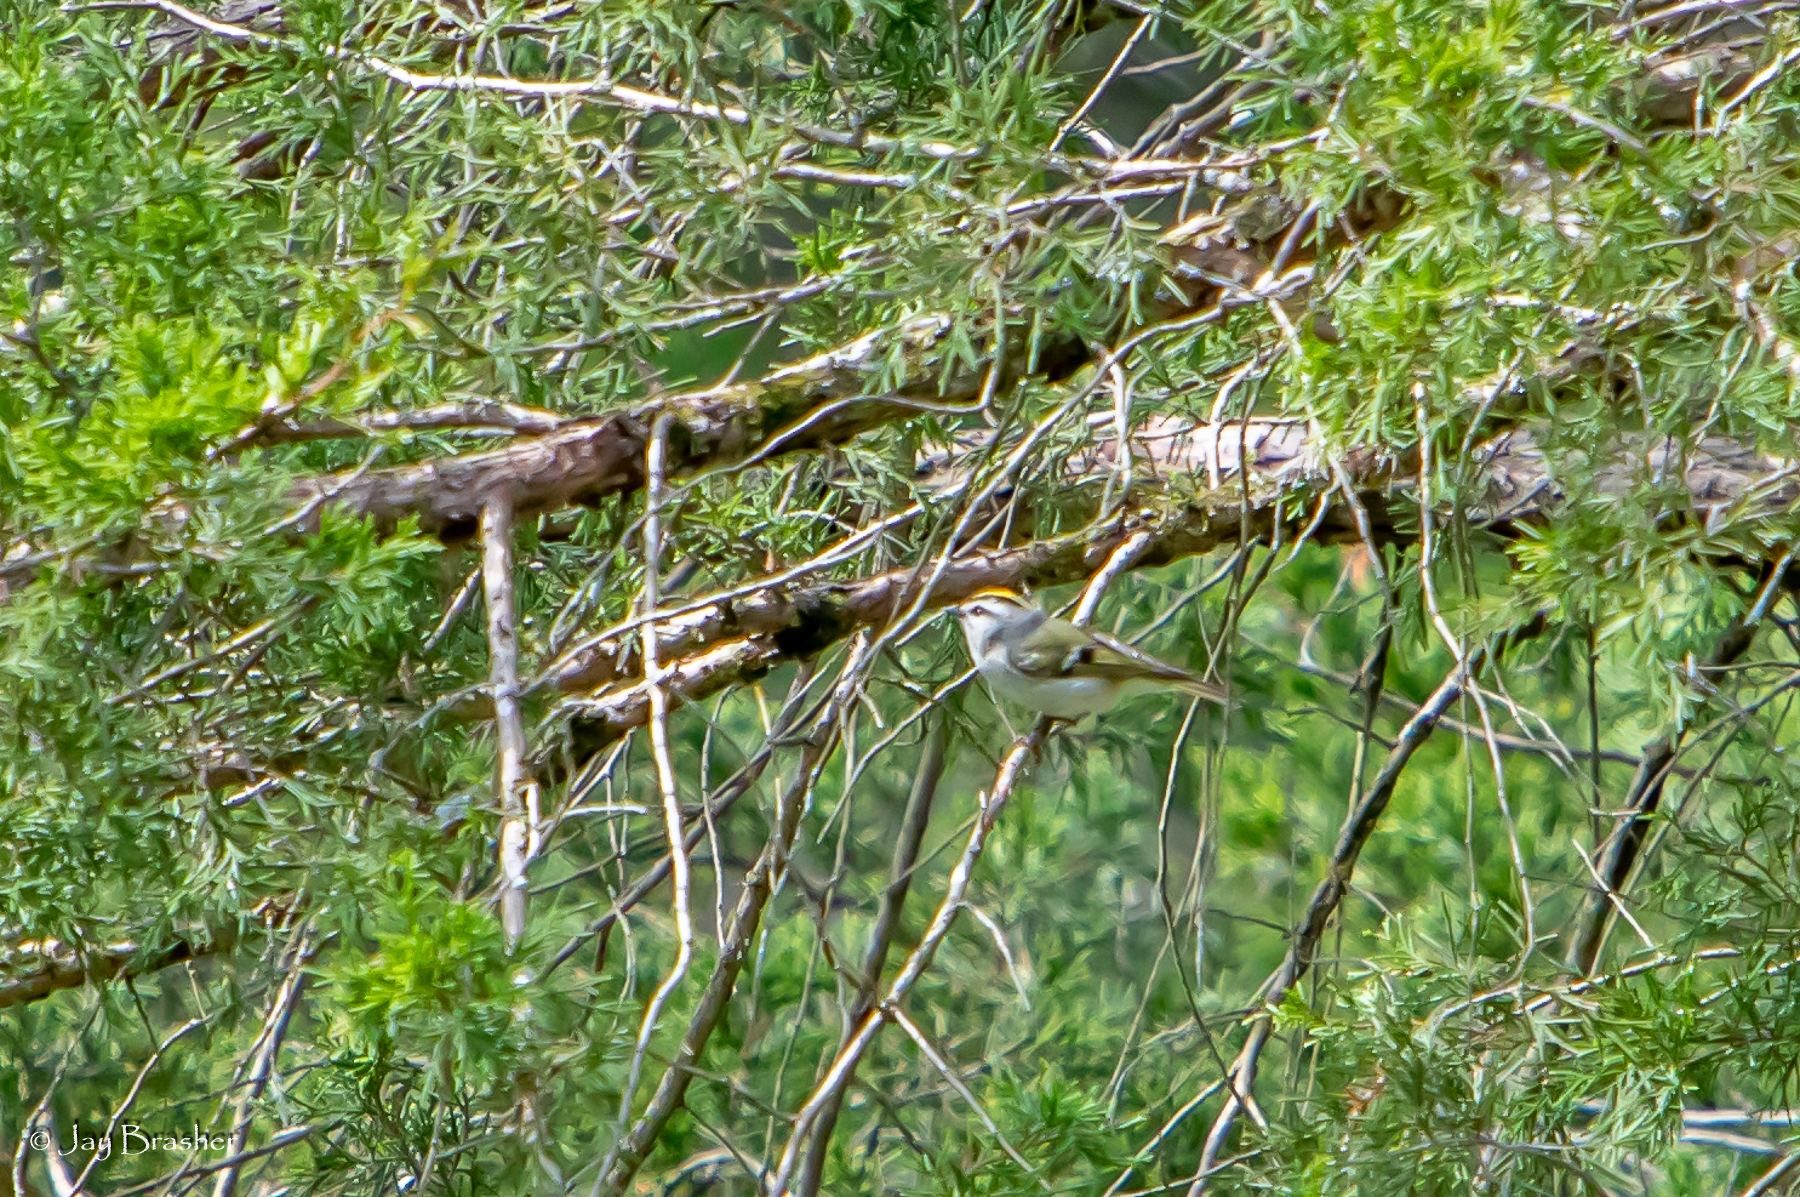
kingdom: Animalia
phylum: Chordata
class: Aves
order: Passeriformes
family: Regulidae
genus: Regulus
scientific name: Regulus satrapa
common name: Golden-crowned kinglet
